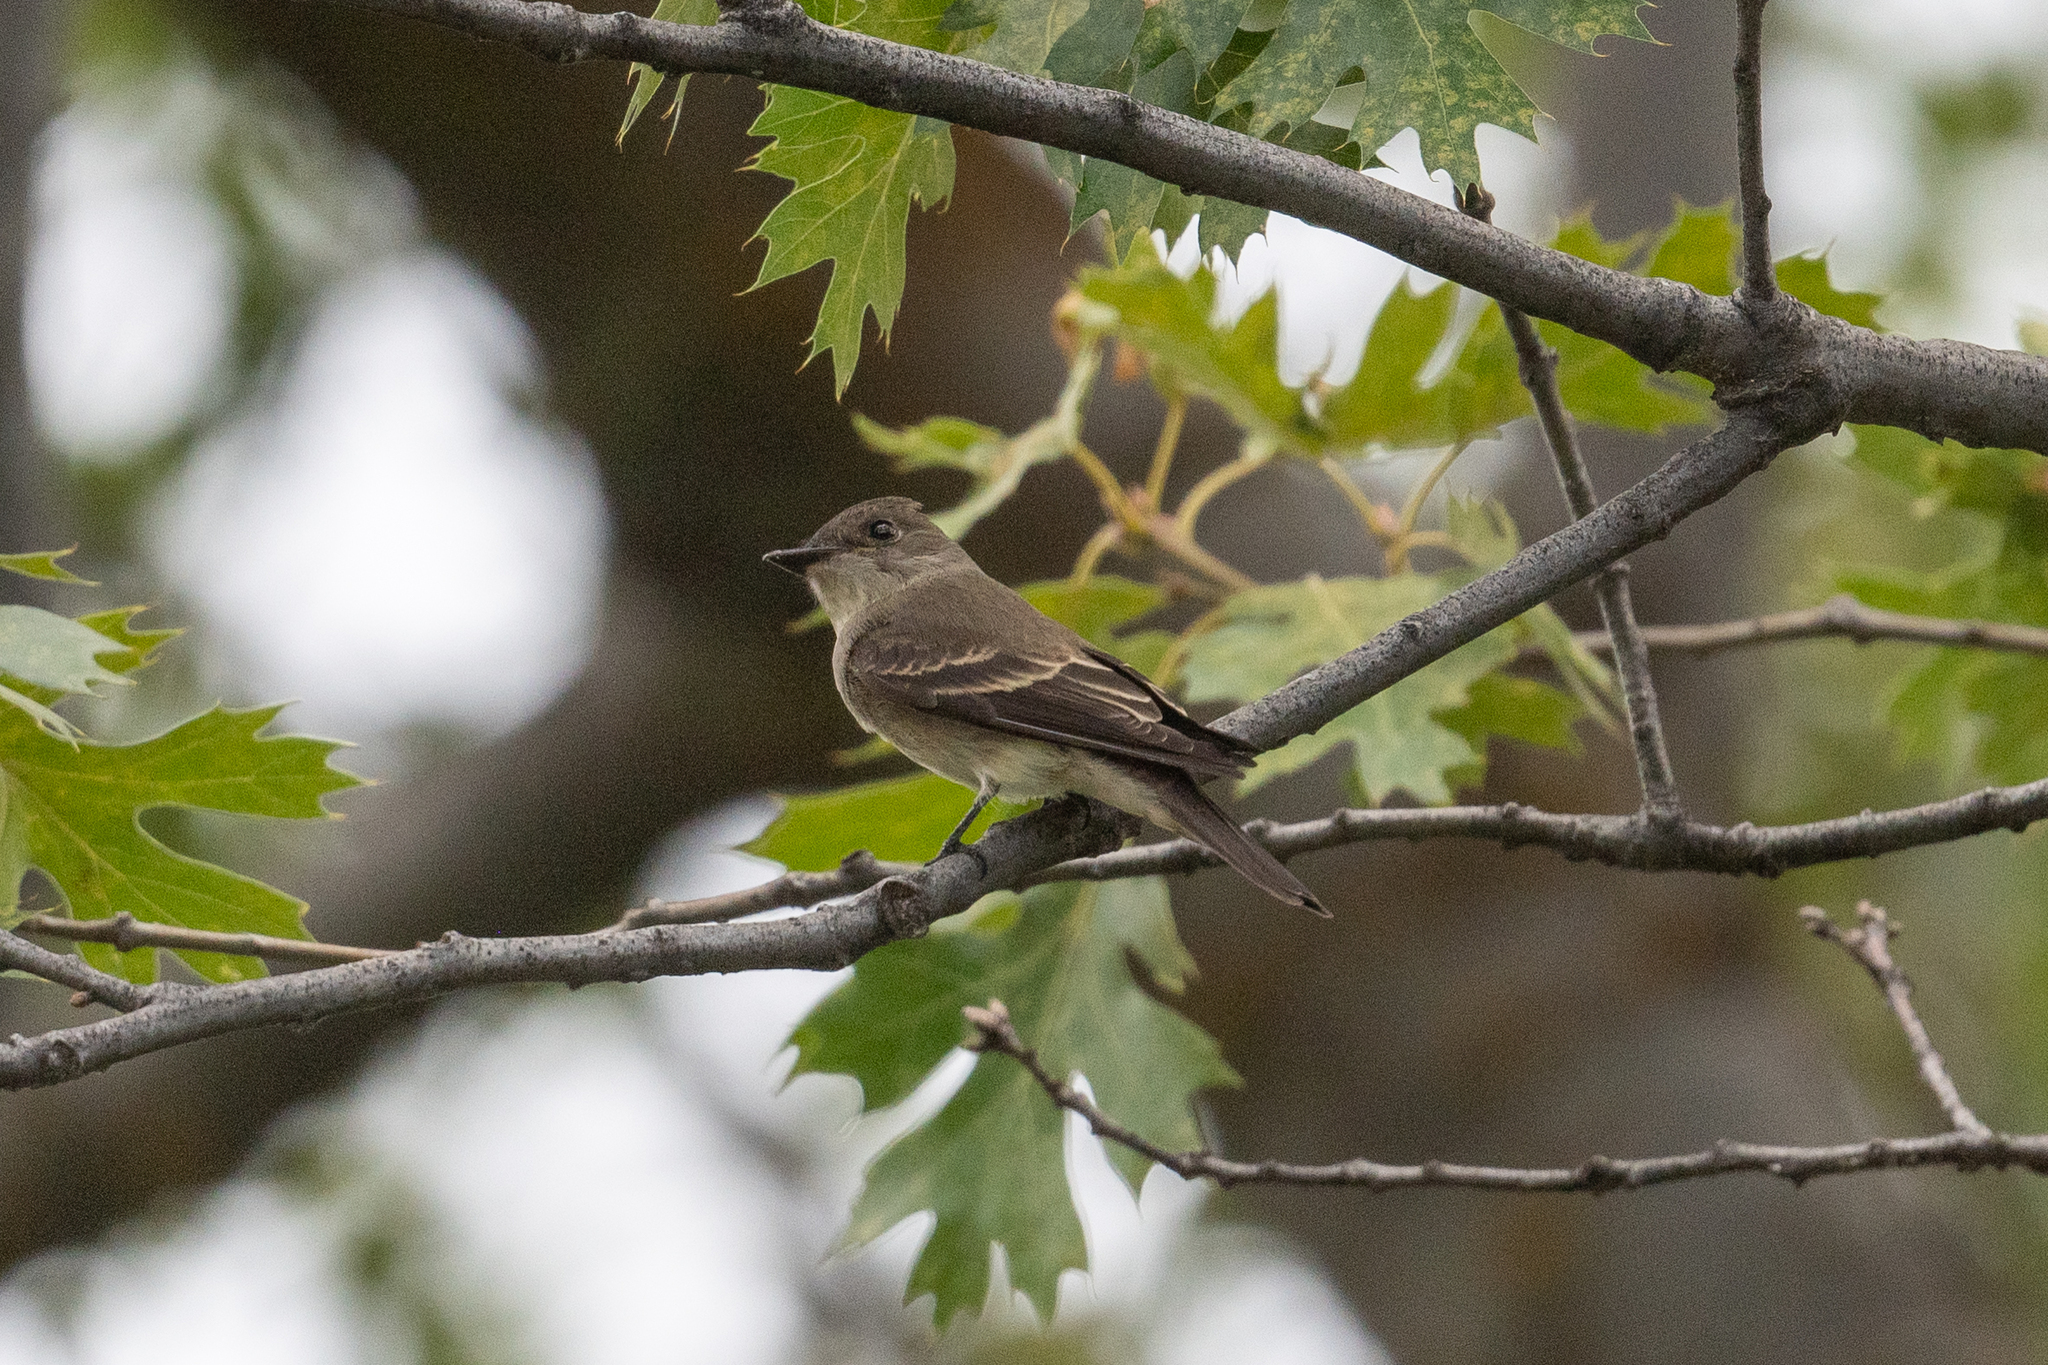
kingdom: Animalia
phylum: Chordata
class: Aves
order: Passeriformes
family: Tyrannidae
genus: Contopus
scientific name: Contopus sordidulus
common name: Western wood-pewee
